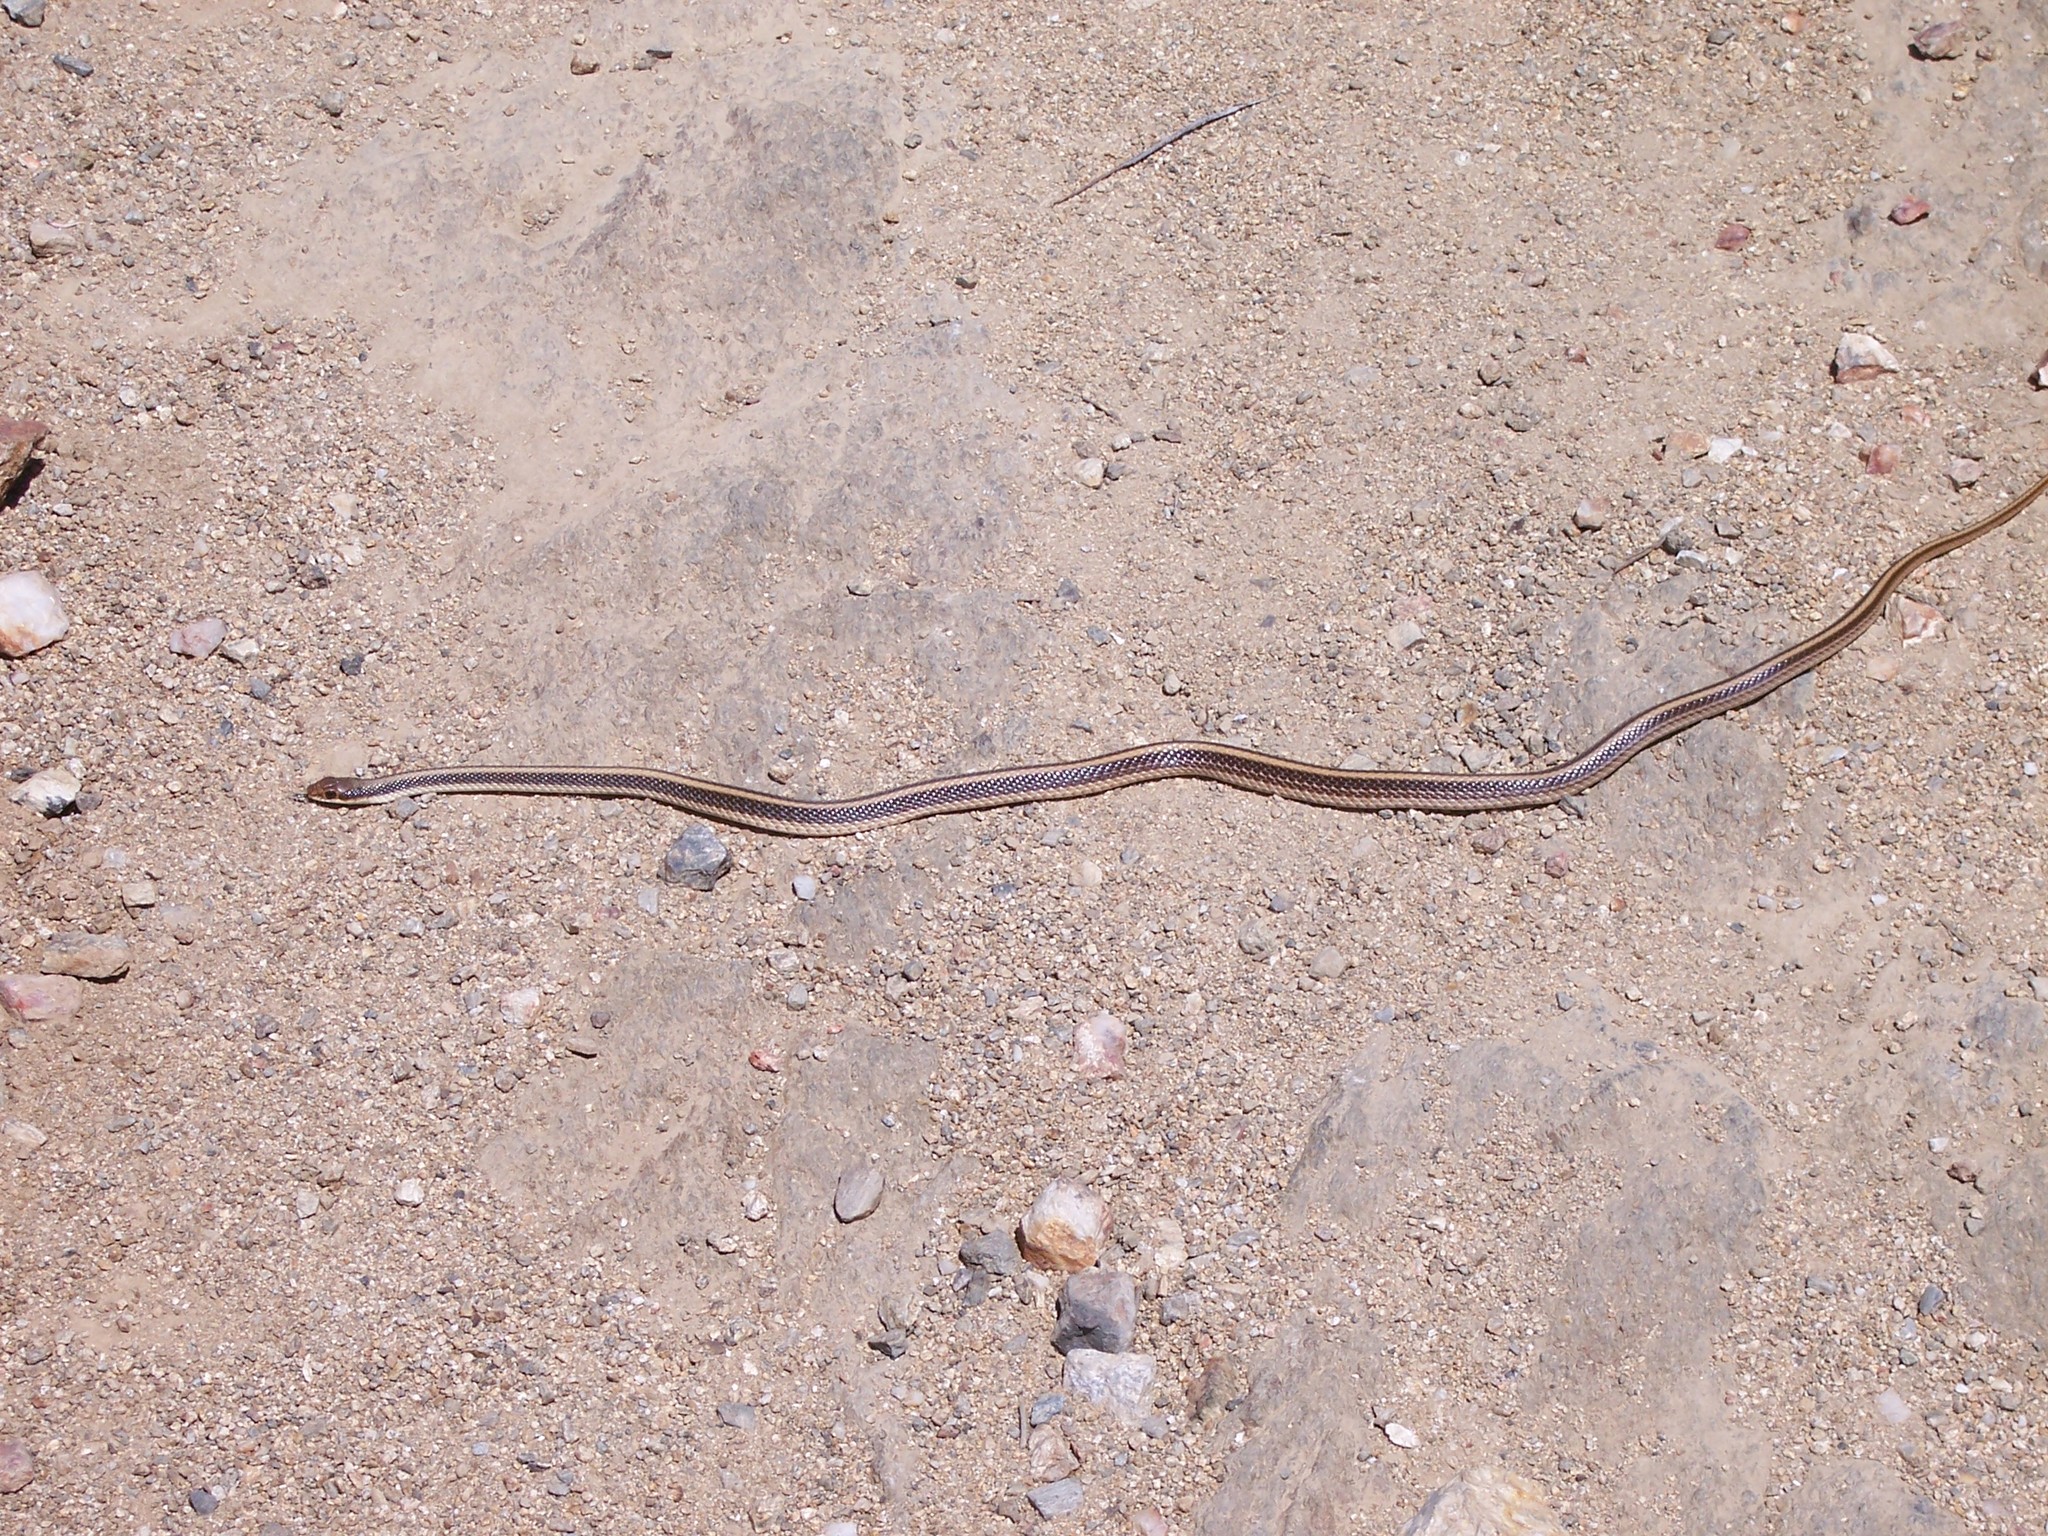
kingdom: Animalia
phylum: Chordata
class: Squamata
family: Colubridae
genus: Salvadora
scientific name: Salvadora hexalepis
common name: Western patchnose snake
